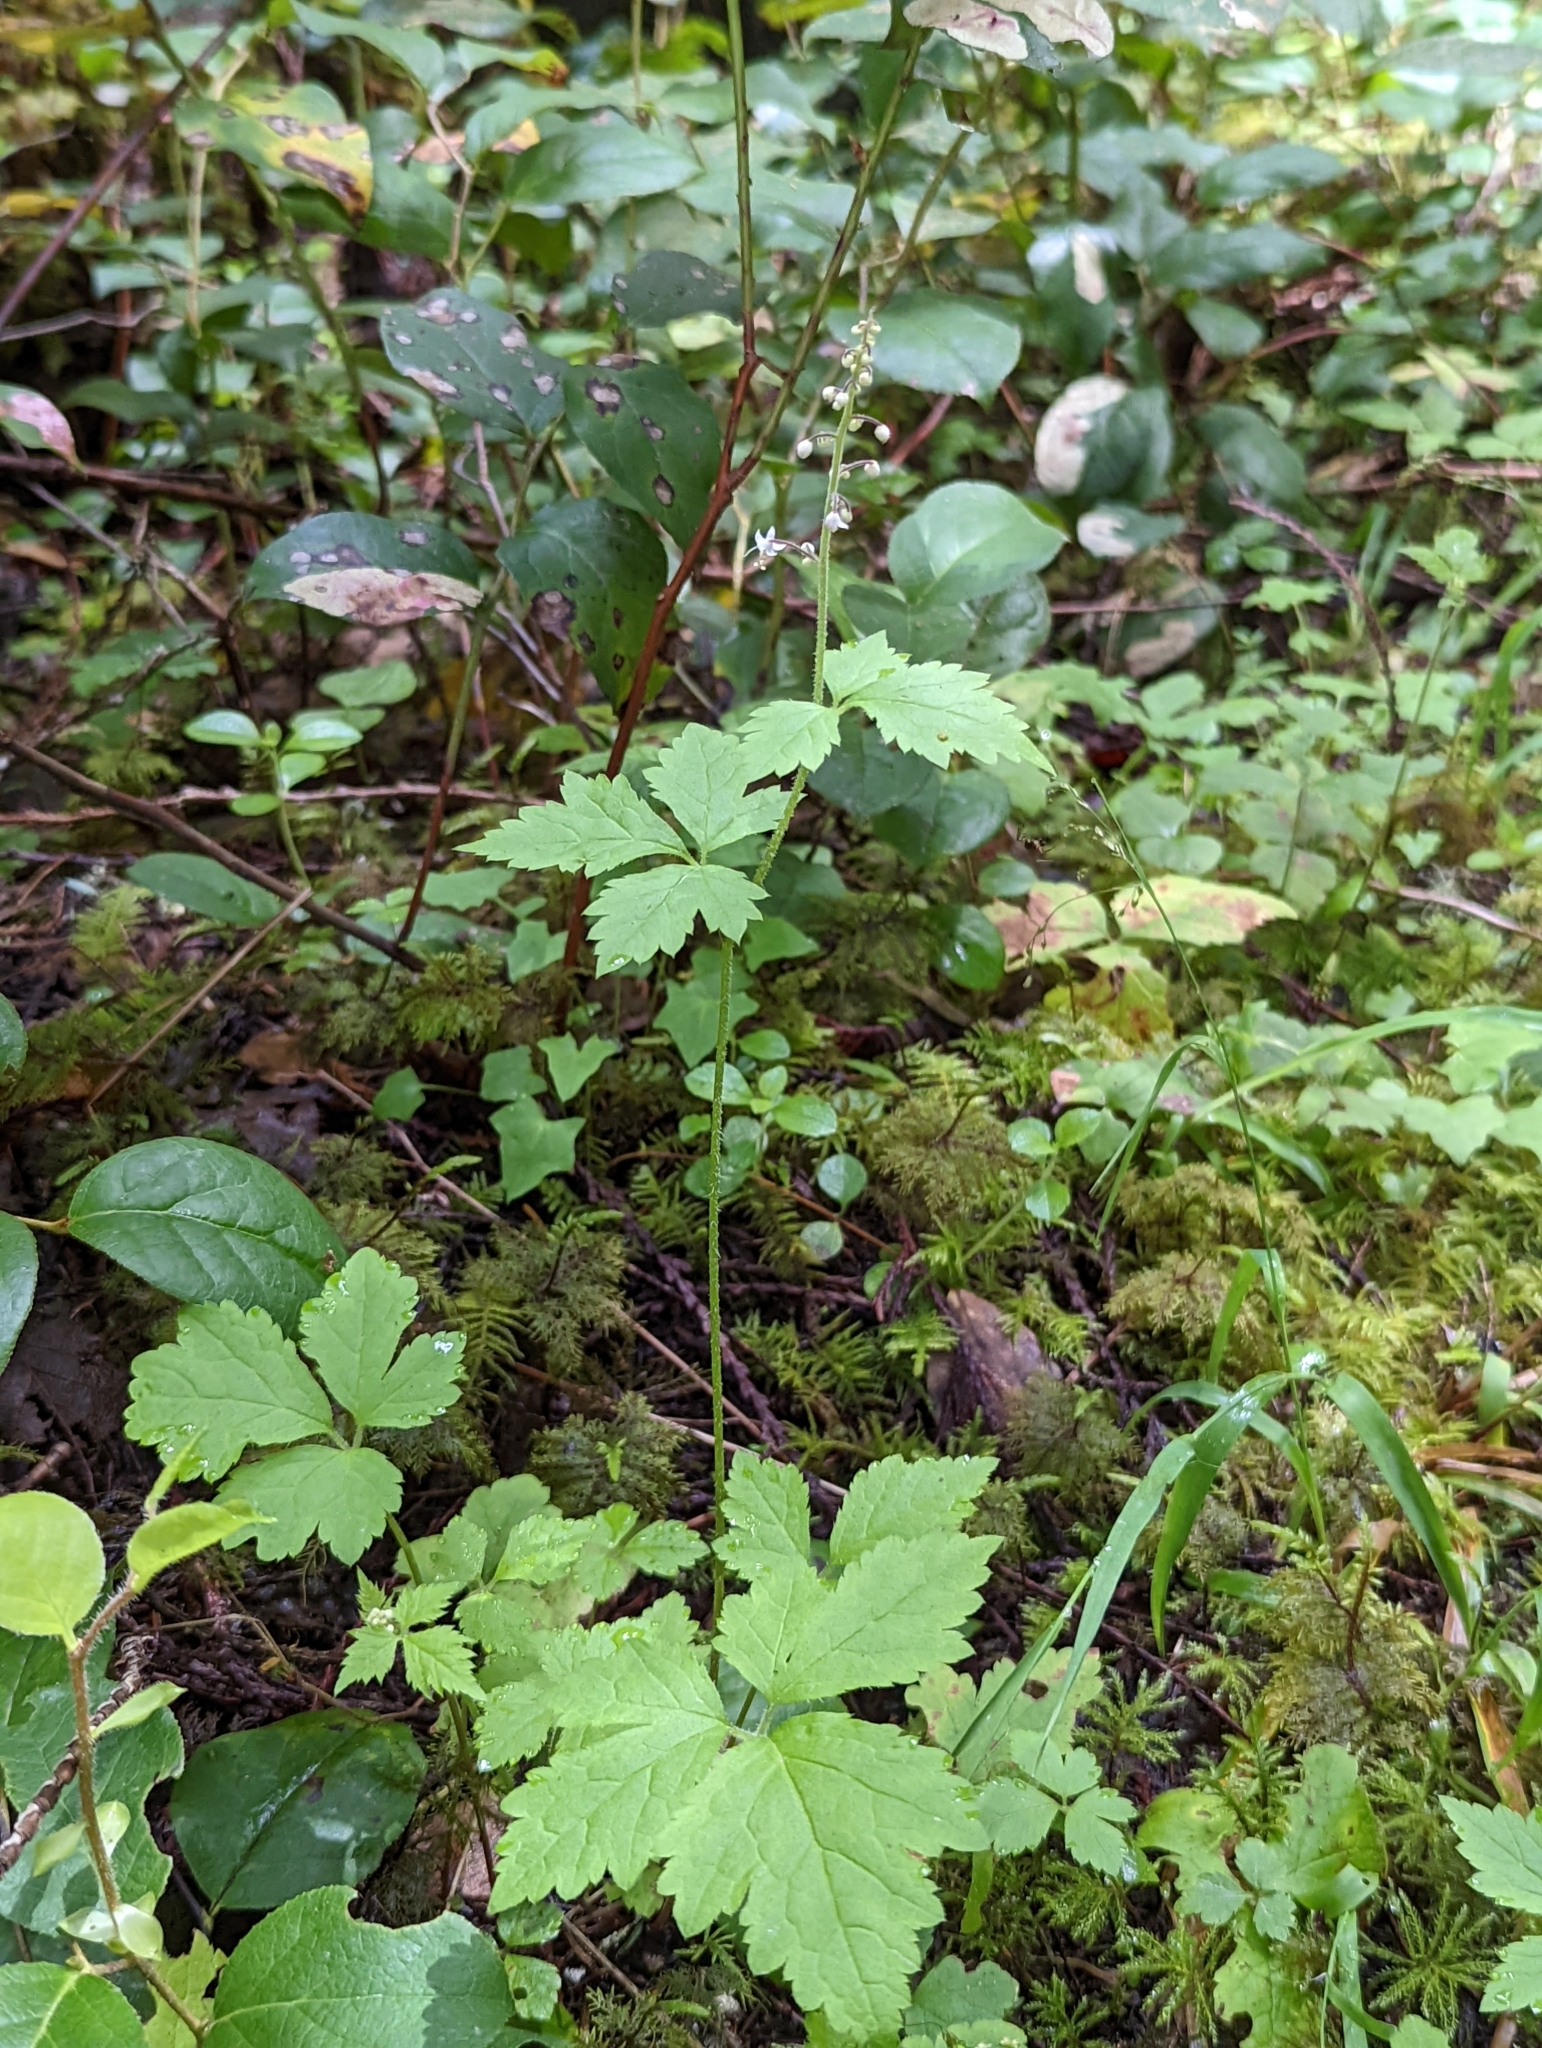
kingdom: Plantae
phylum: Tracheophyta
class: Magnoliopsida
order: Saxifragales
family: Saxifragaceae
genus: Tiarella
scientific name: Tiarella trifoliata
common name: Sugar-scoop
